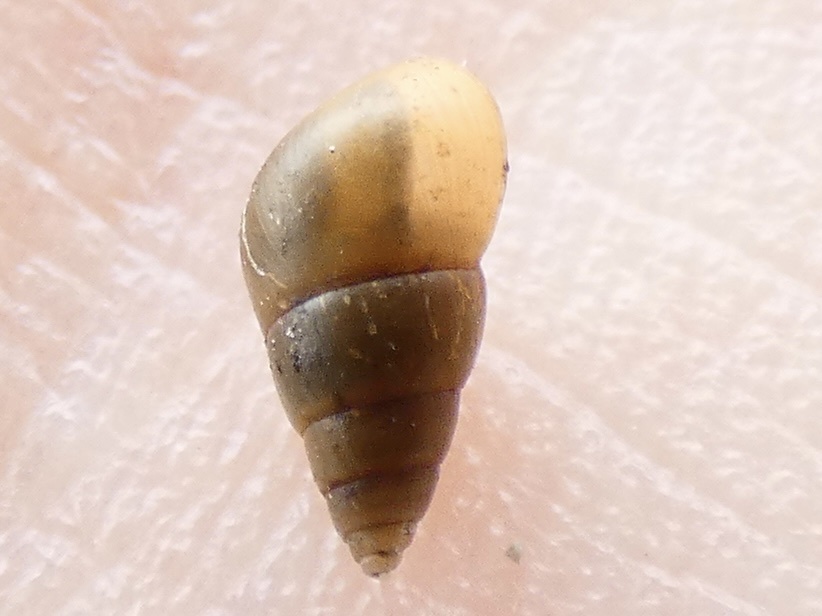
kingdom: Animalia
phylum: Mollusca
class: Gastropoda
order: Littorinimorpha
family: Hydrobiidae
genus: Peringia
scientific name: Peringia ulvae
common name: Laver spire shell
